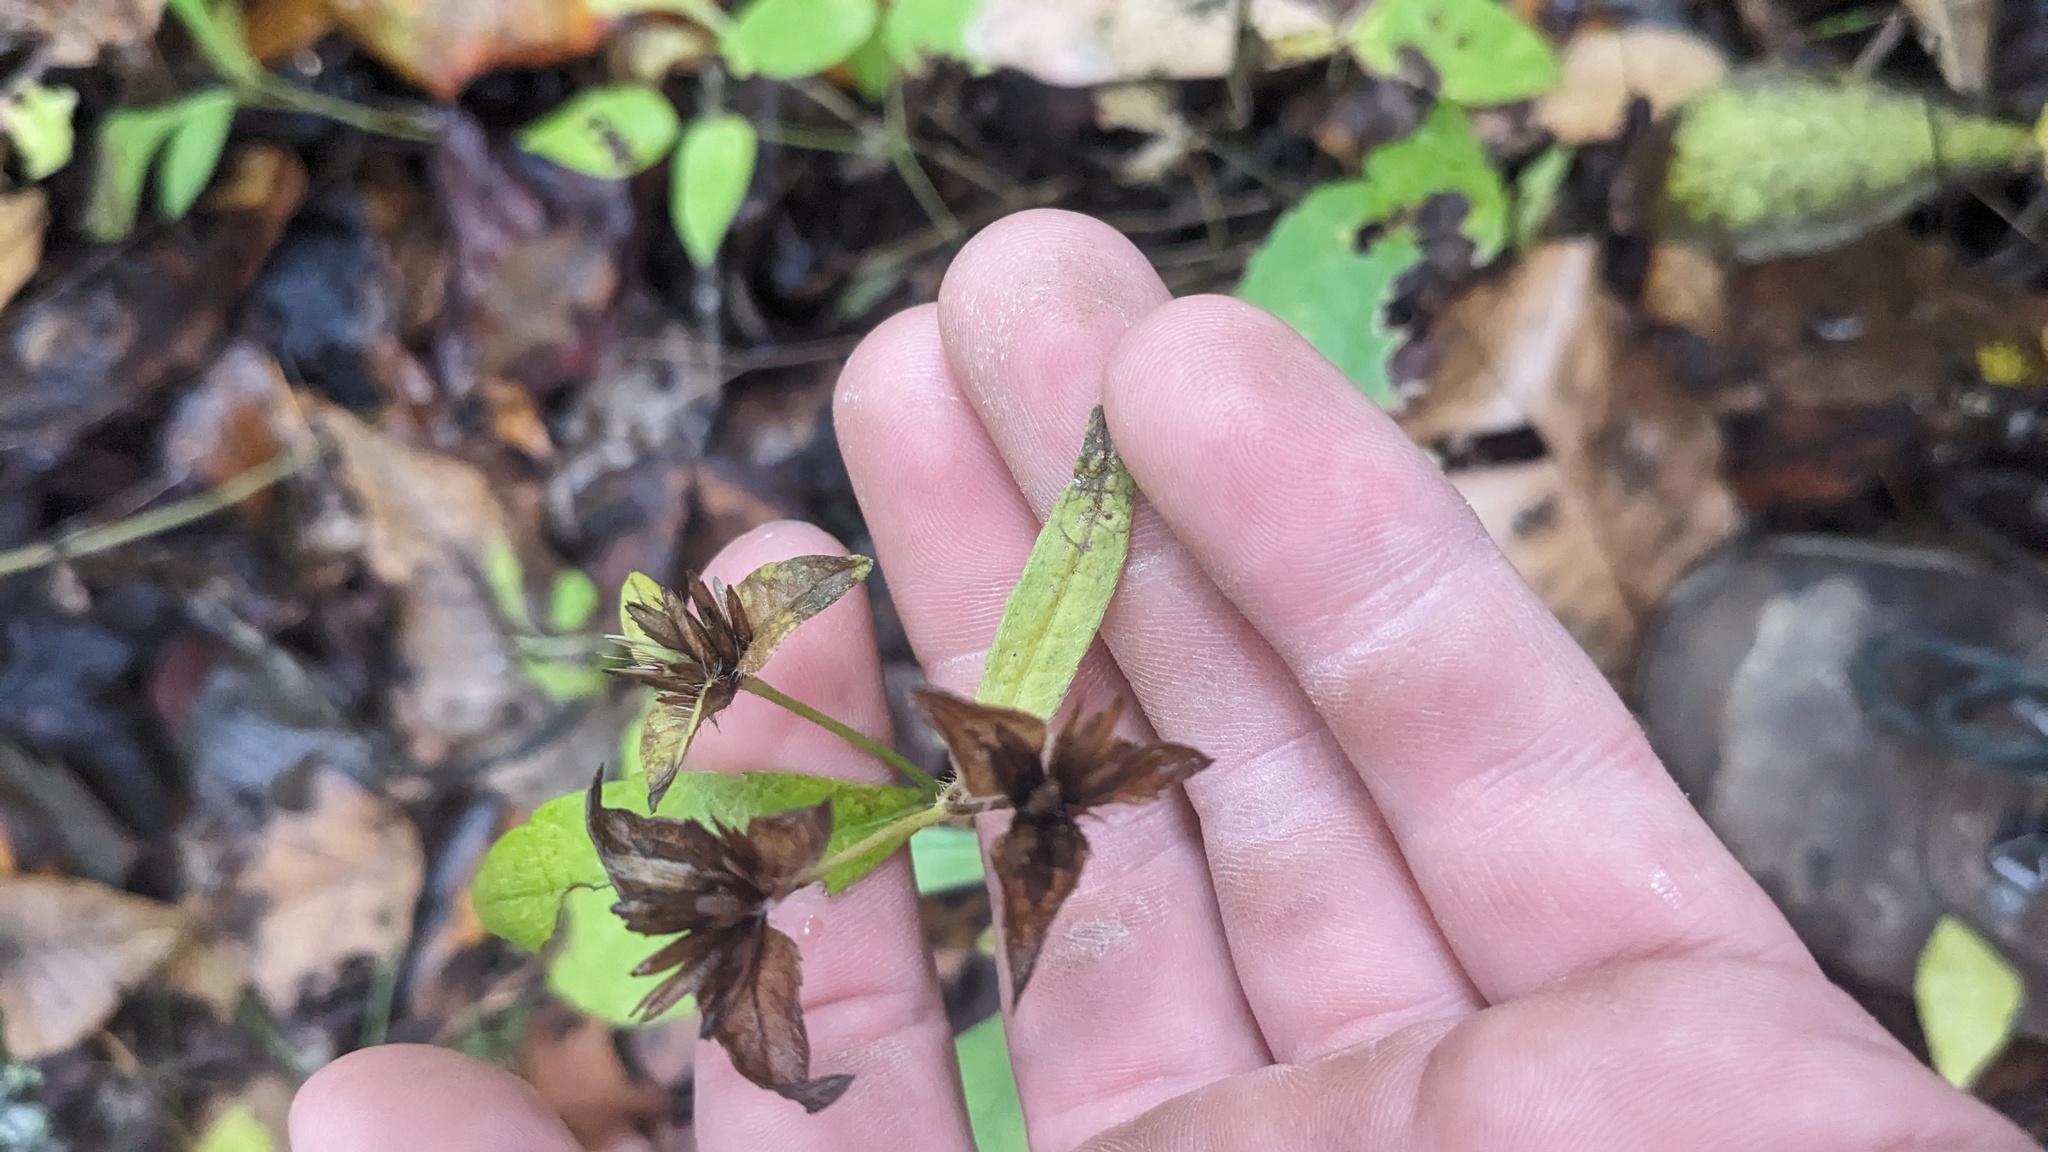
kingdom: Plantae
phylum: Tracheophyta
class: Magnoliopsida
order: Asterales
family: Asteraceae
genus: Elephantopus
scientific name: Elephantopus carolinianus
